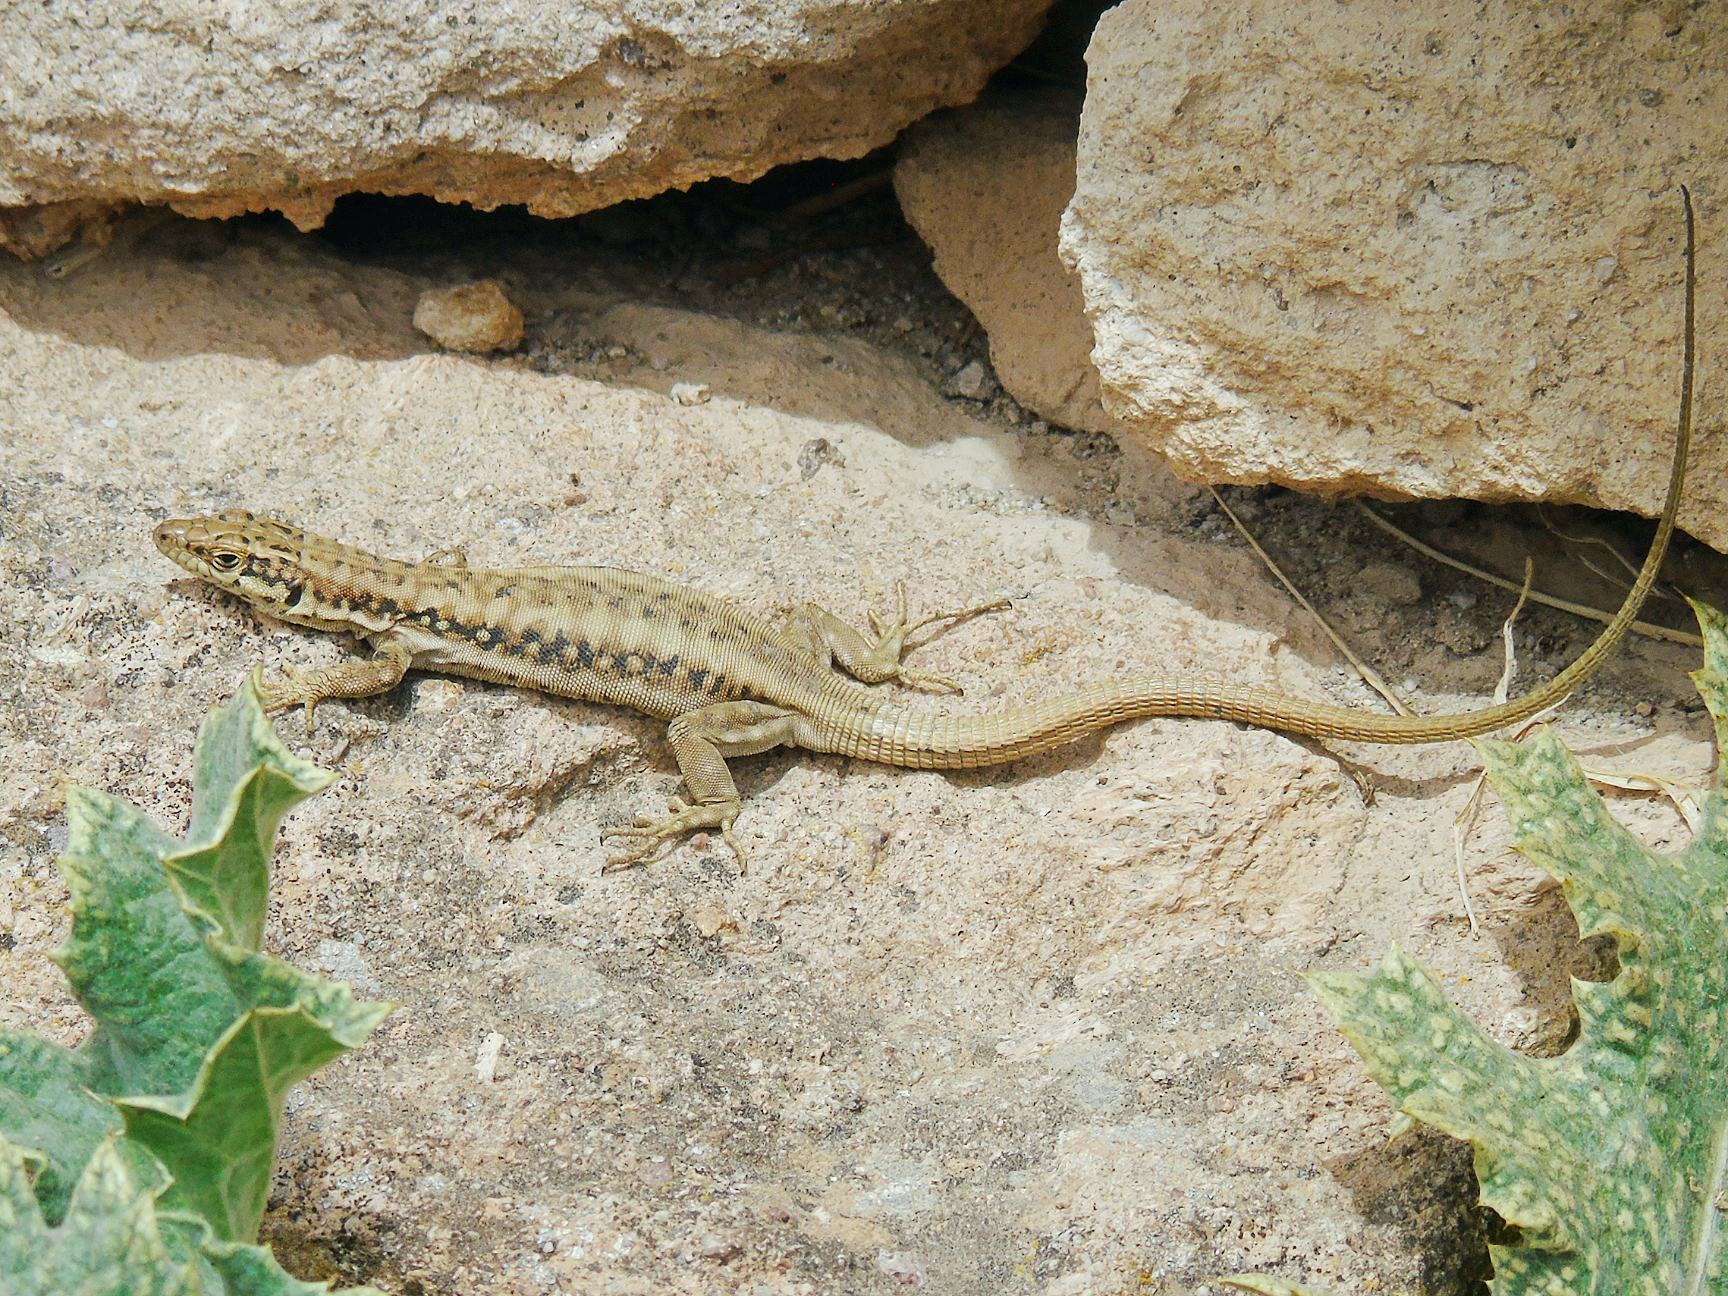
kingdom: Animalia
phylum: Chordata
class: Squamata
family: Lacertidae
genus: Apathya
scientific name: Apathya cappadocica
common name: Anatolian lizard
